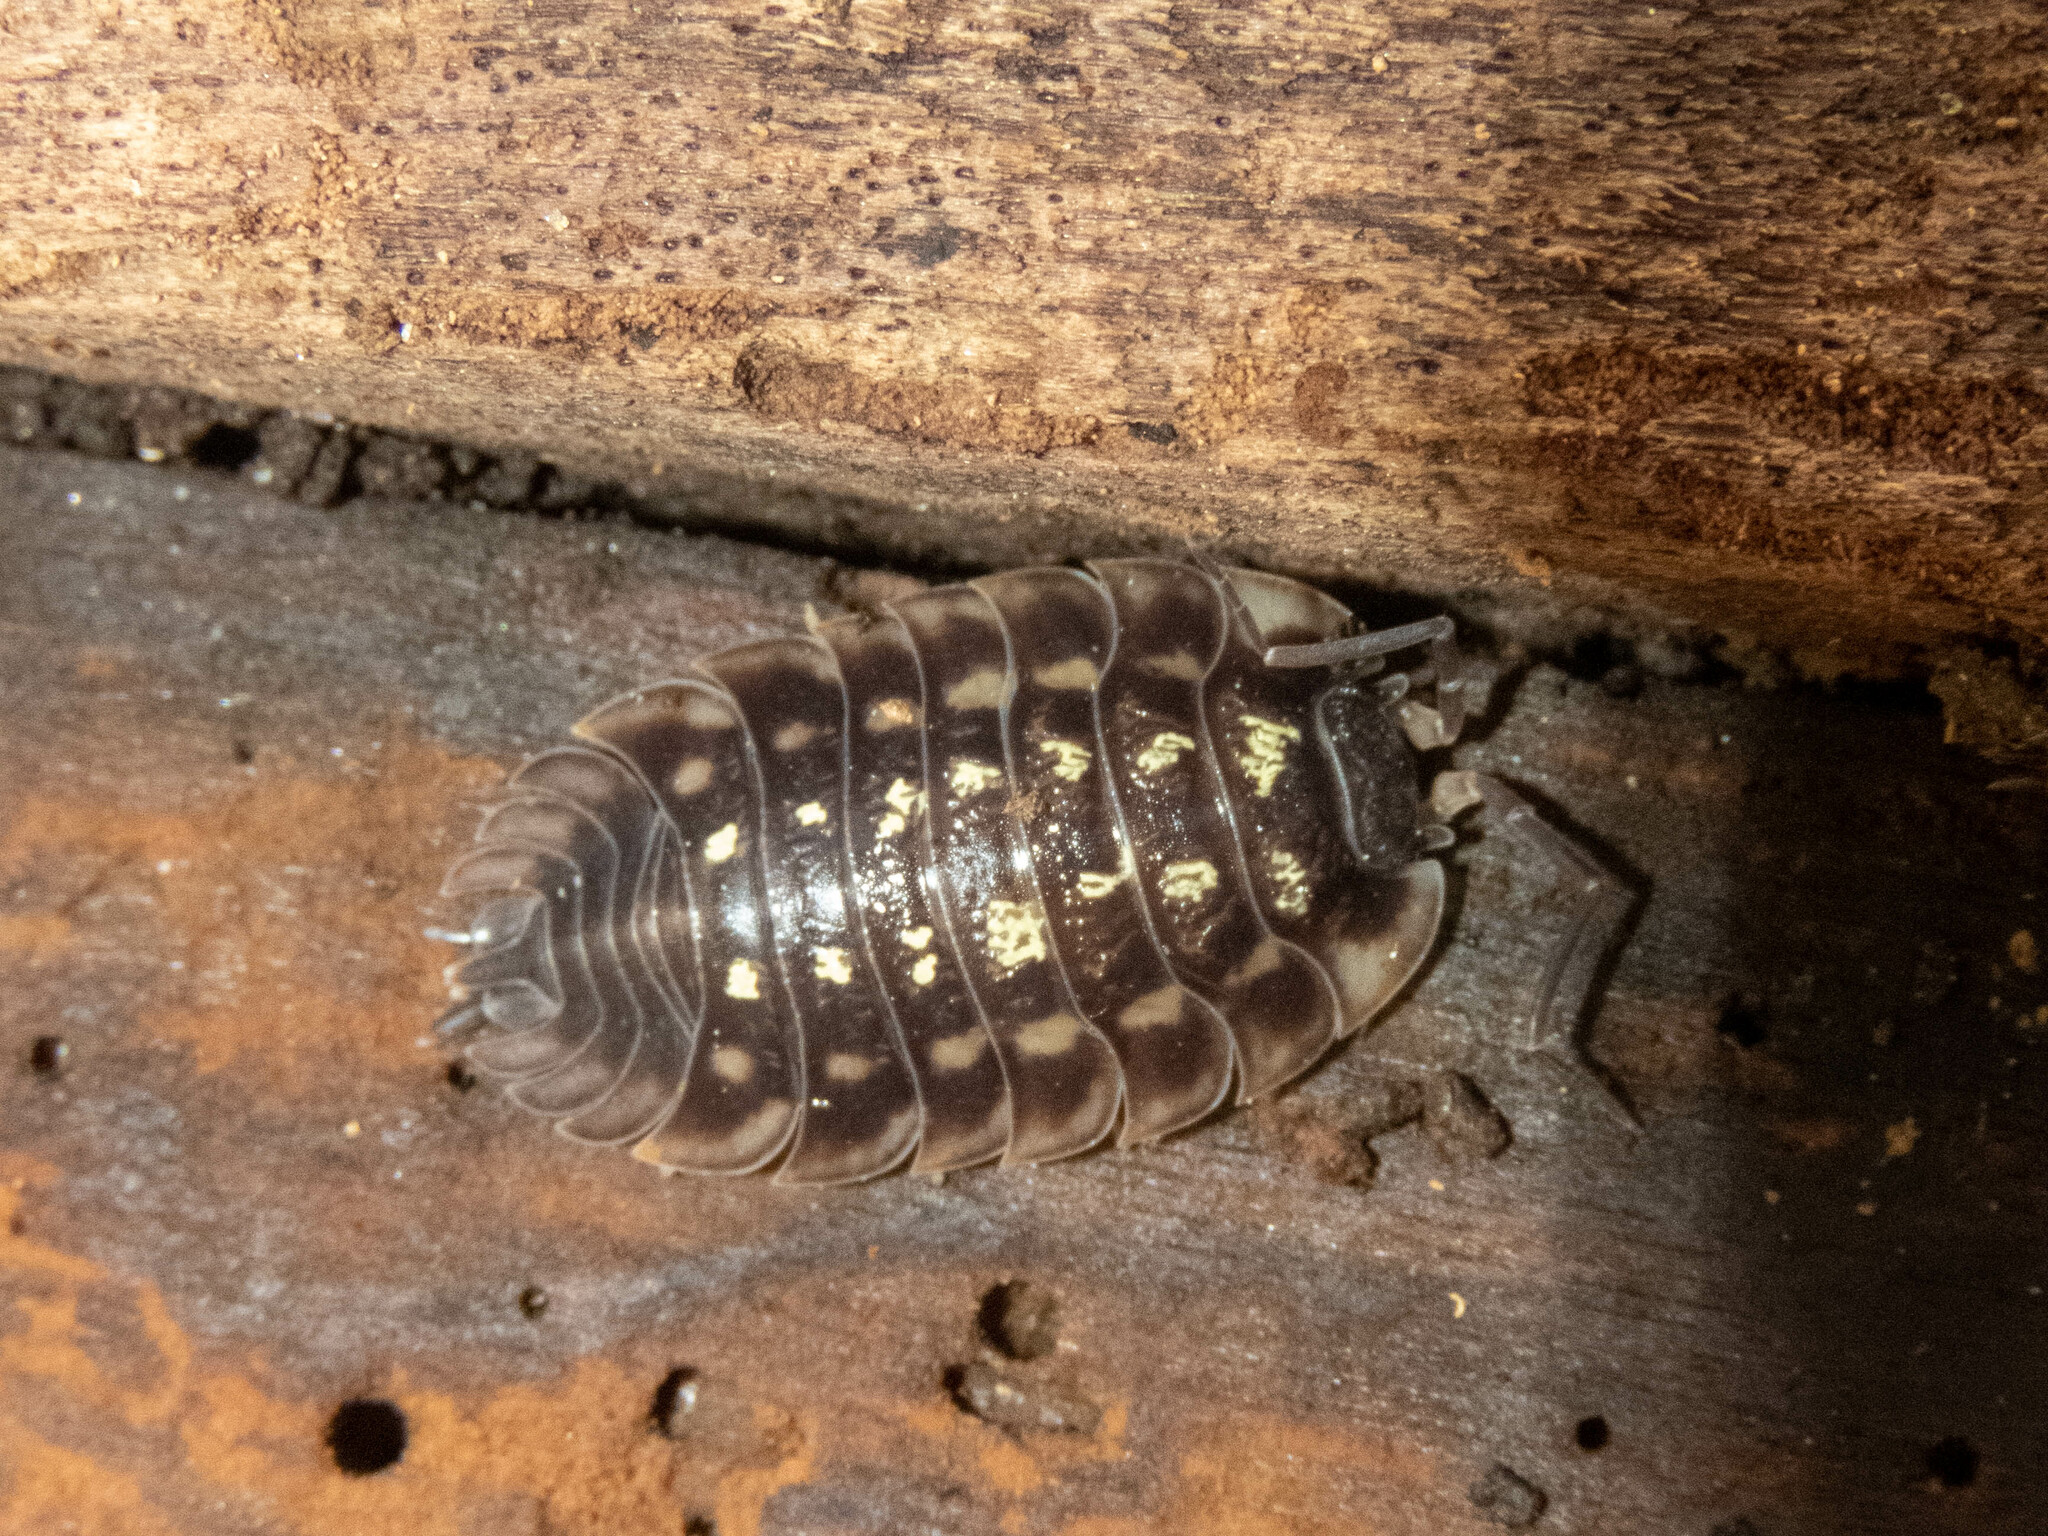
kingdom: Animalia
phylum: Arthropoda
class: Malacostraca
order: Isopoda
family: Oniscidae
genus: Oniscus
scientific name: Oniscus asellus
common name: Common shiny woodlouse
